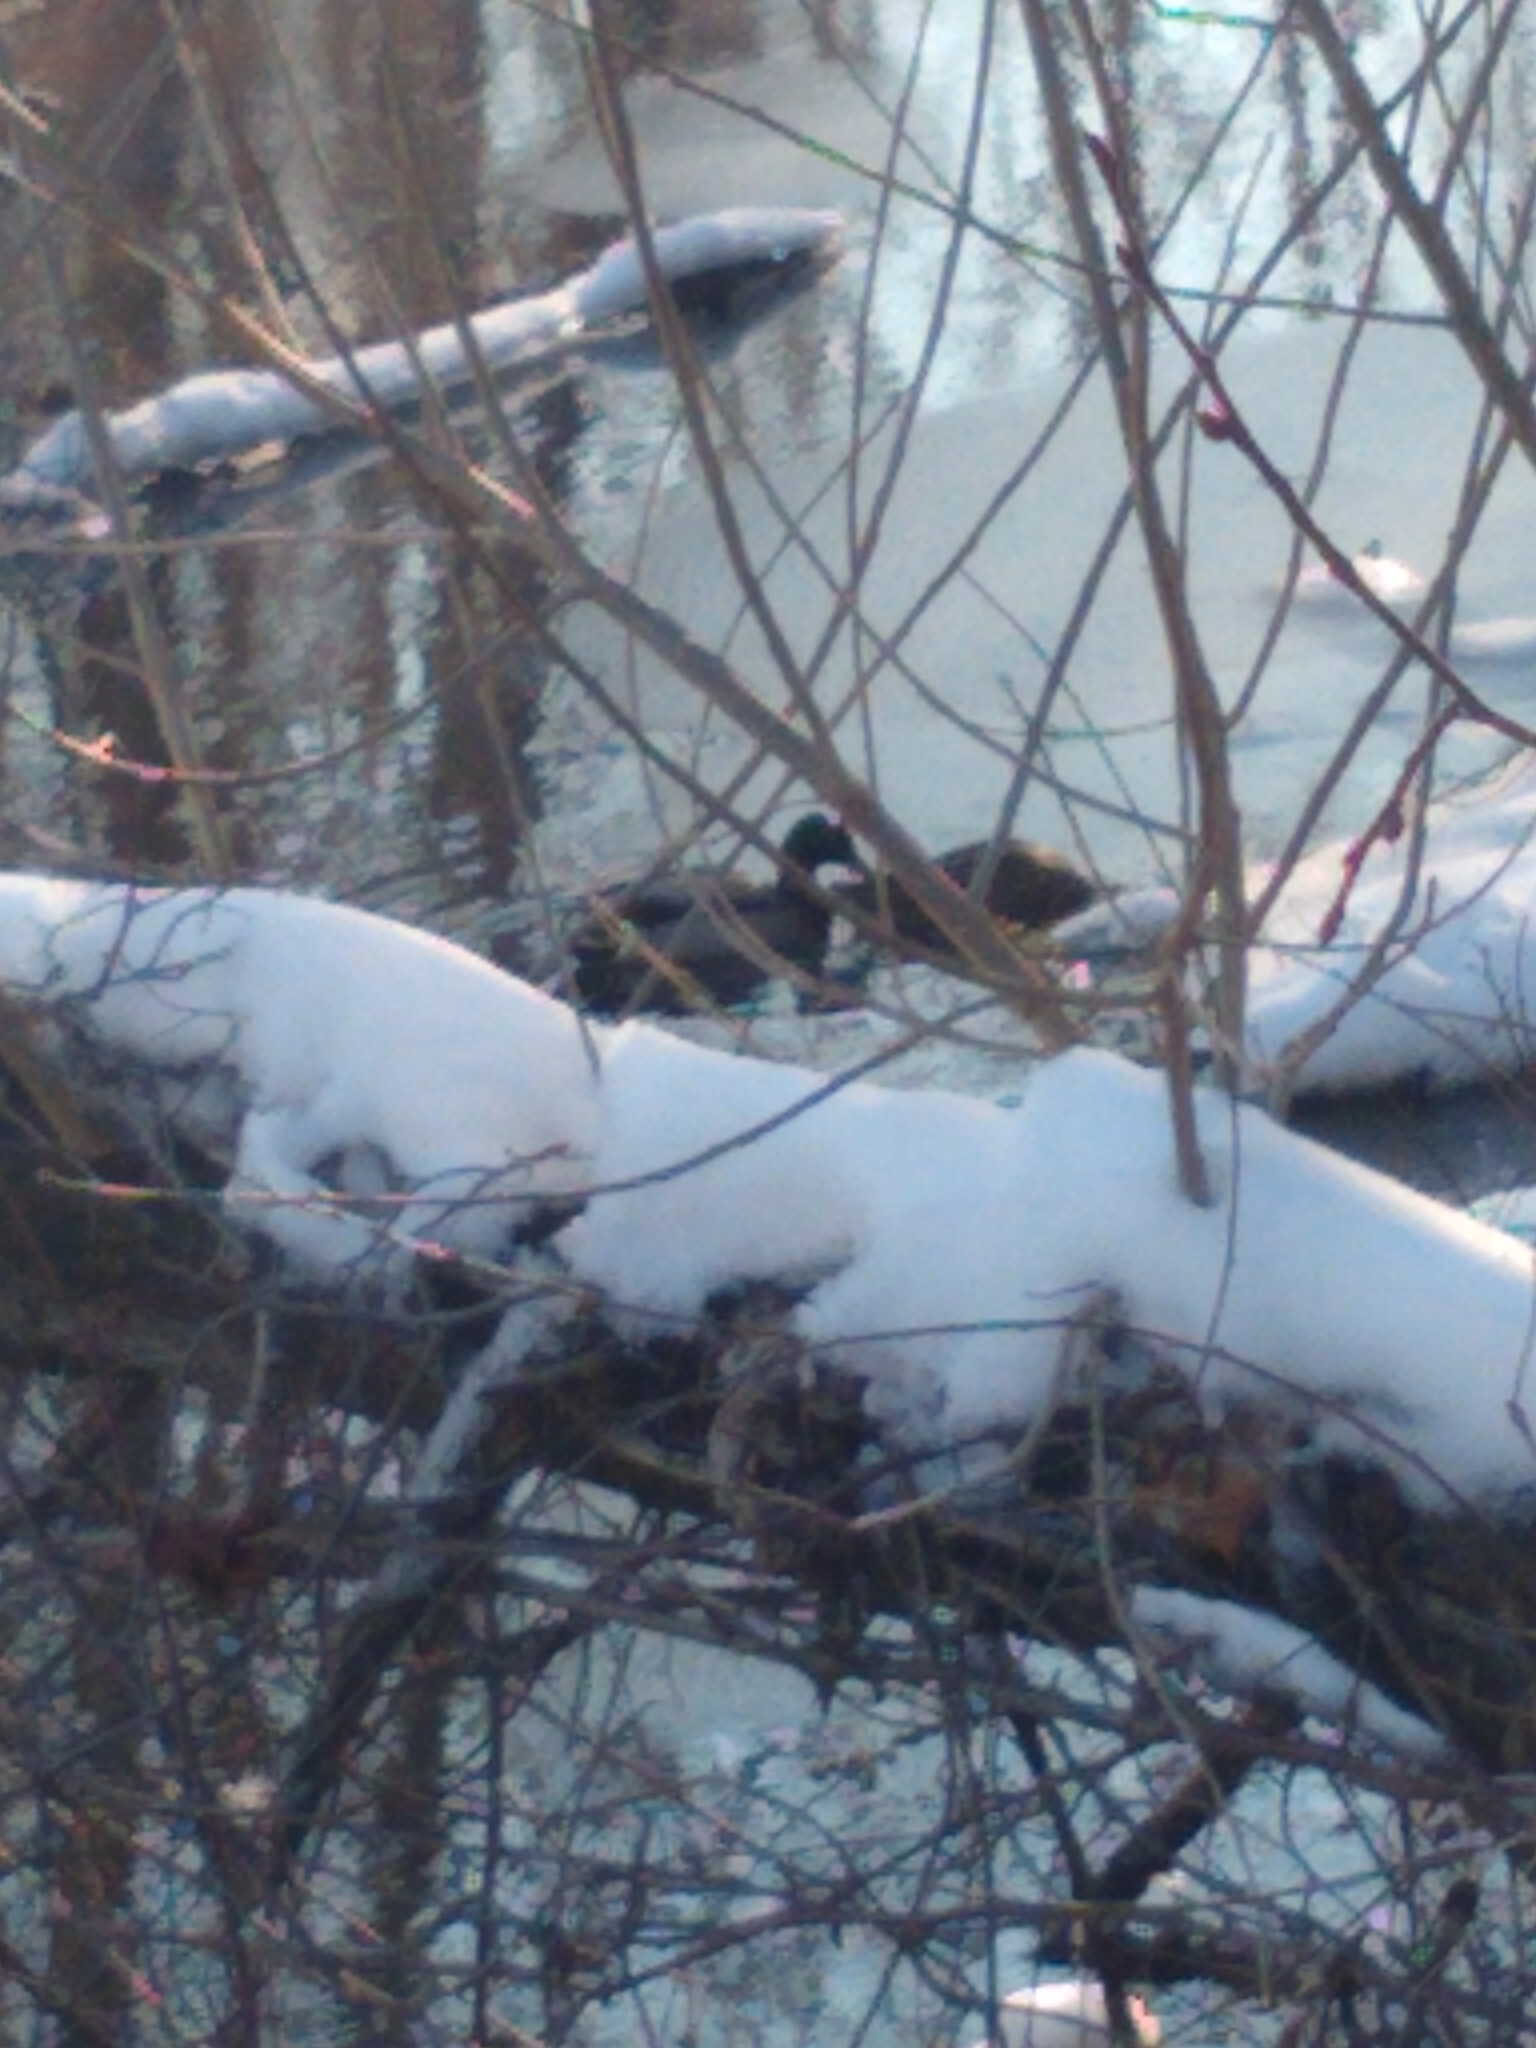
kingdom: Animalia
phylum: Chordata
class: Aves
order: Anseriformes
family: Anatidae
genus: Anas
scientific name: Anas platyrhynchos
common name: Mallard
